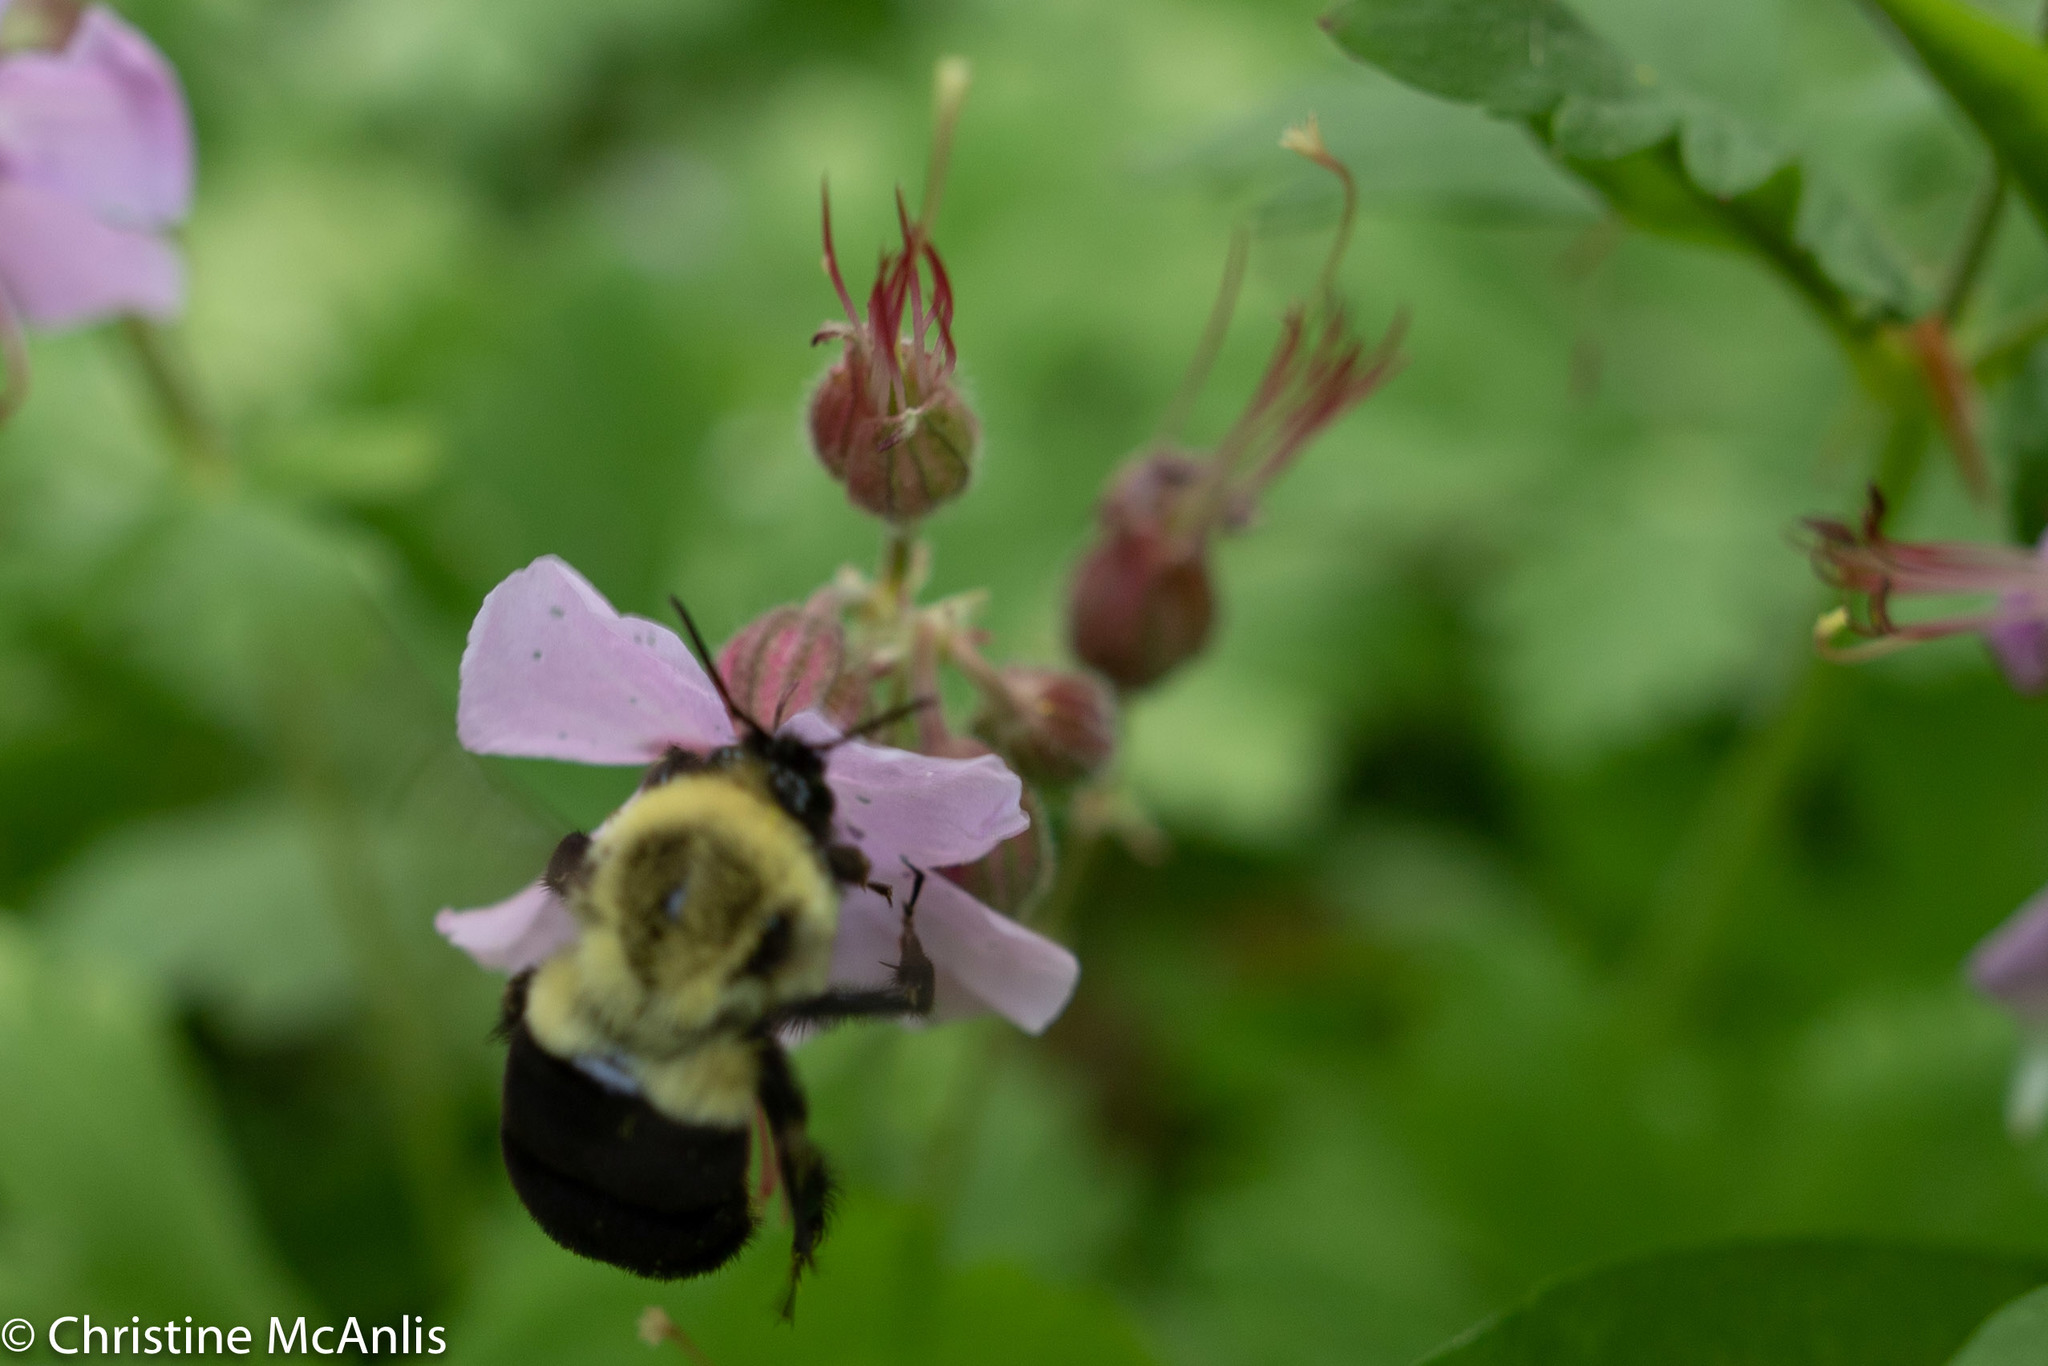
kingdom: Animalia
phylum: Arthropoda
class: Insecta
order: Hymenoptera
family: Apidae
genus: Bombus
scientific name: Bombus impatiens
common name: Common eastern bumble bee
